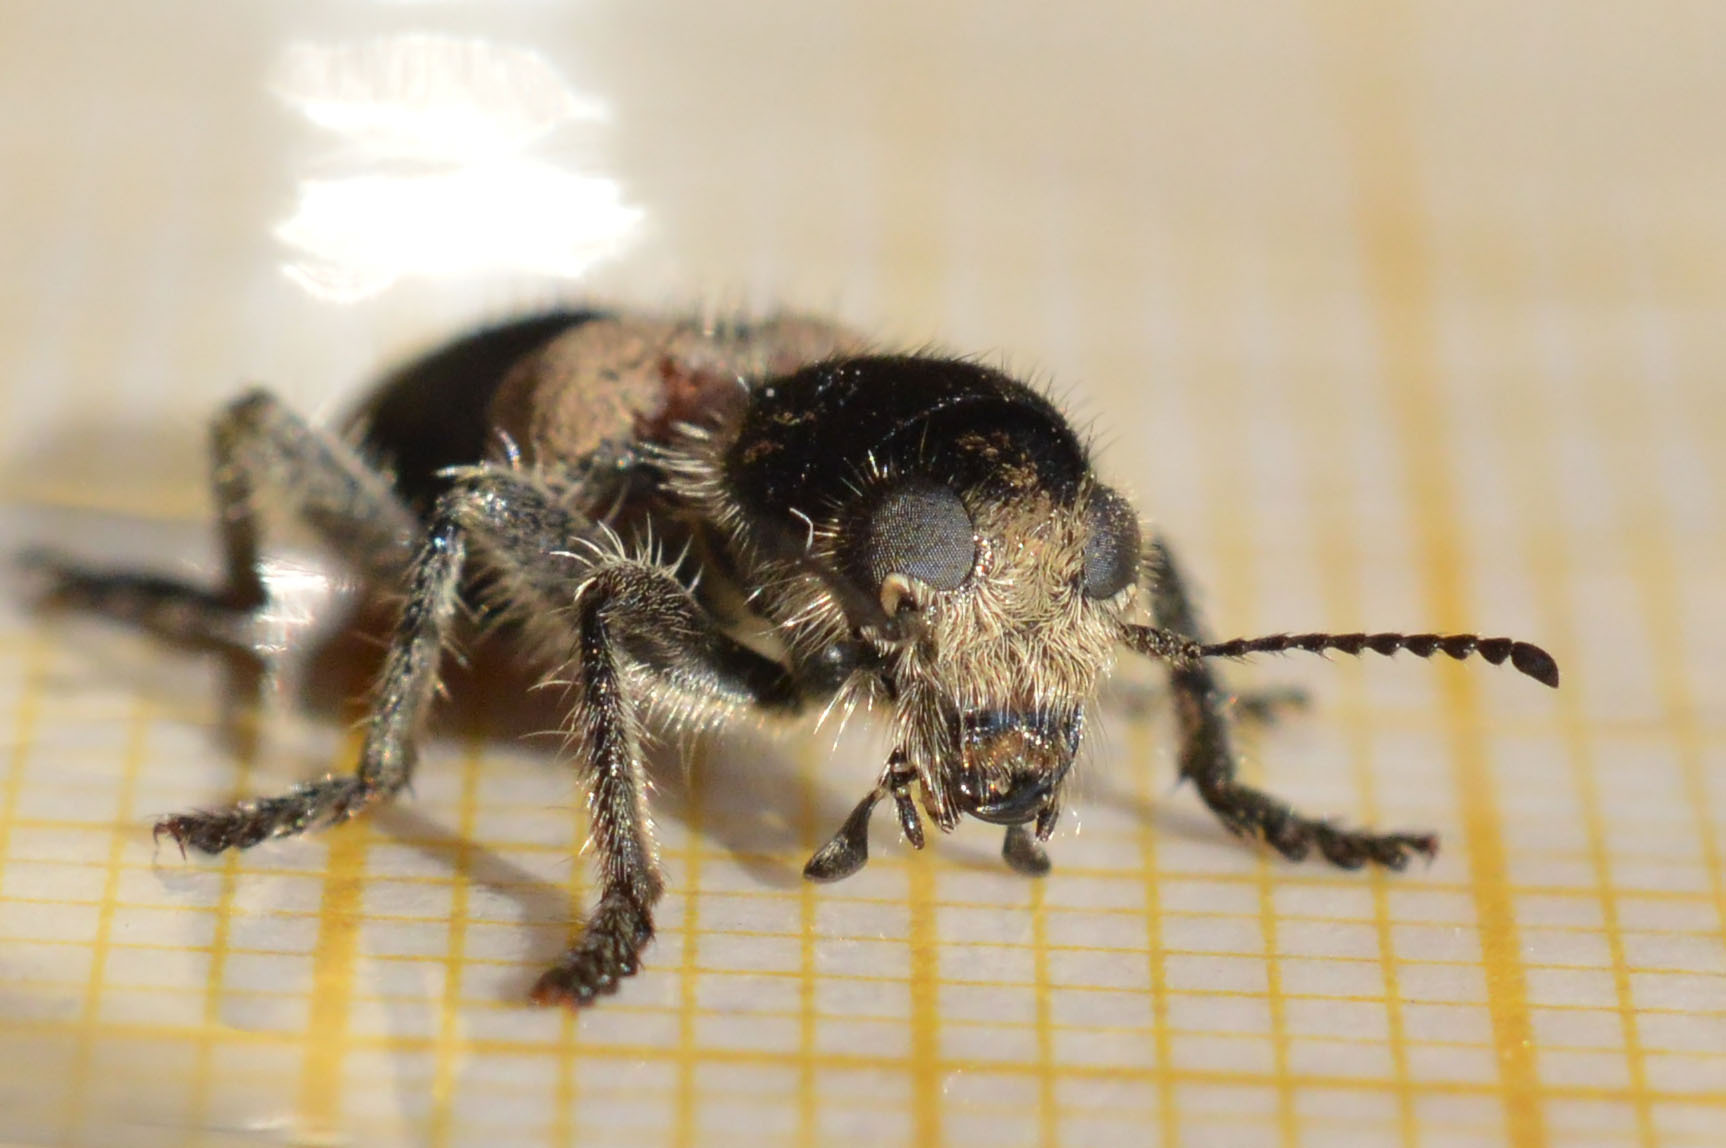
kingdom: Animalia
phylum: Arthropoda
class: Insecta
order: Coleoptera
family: Cleridae
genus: Clerus
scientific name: Clerus mutillarius
